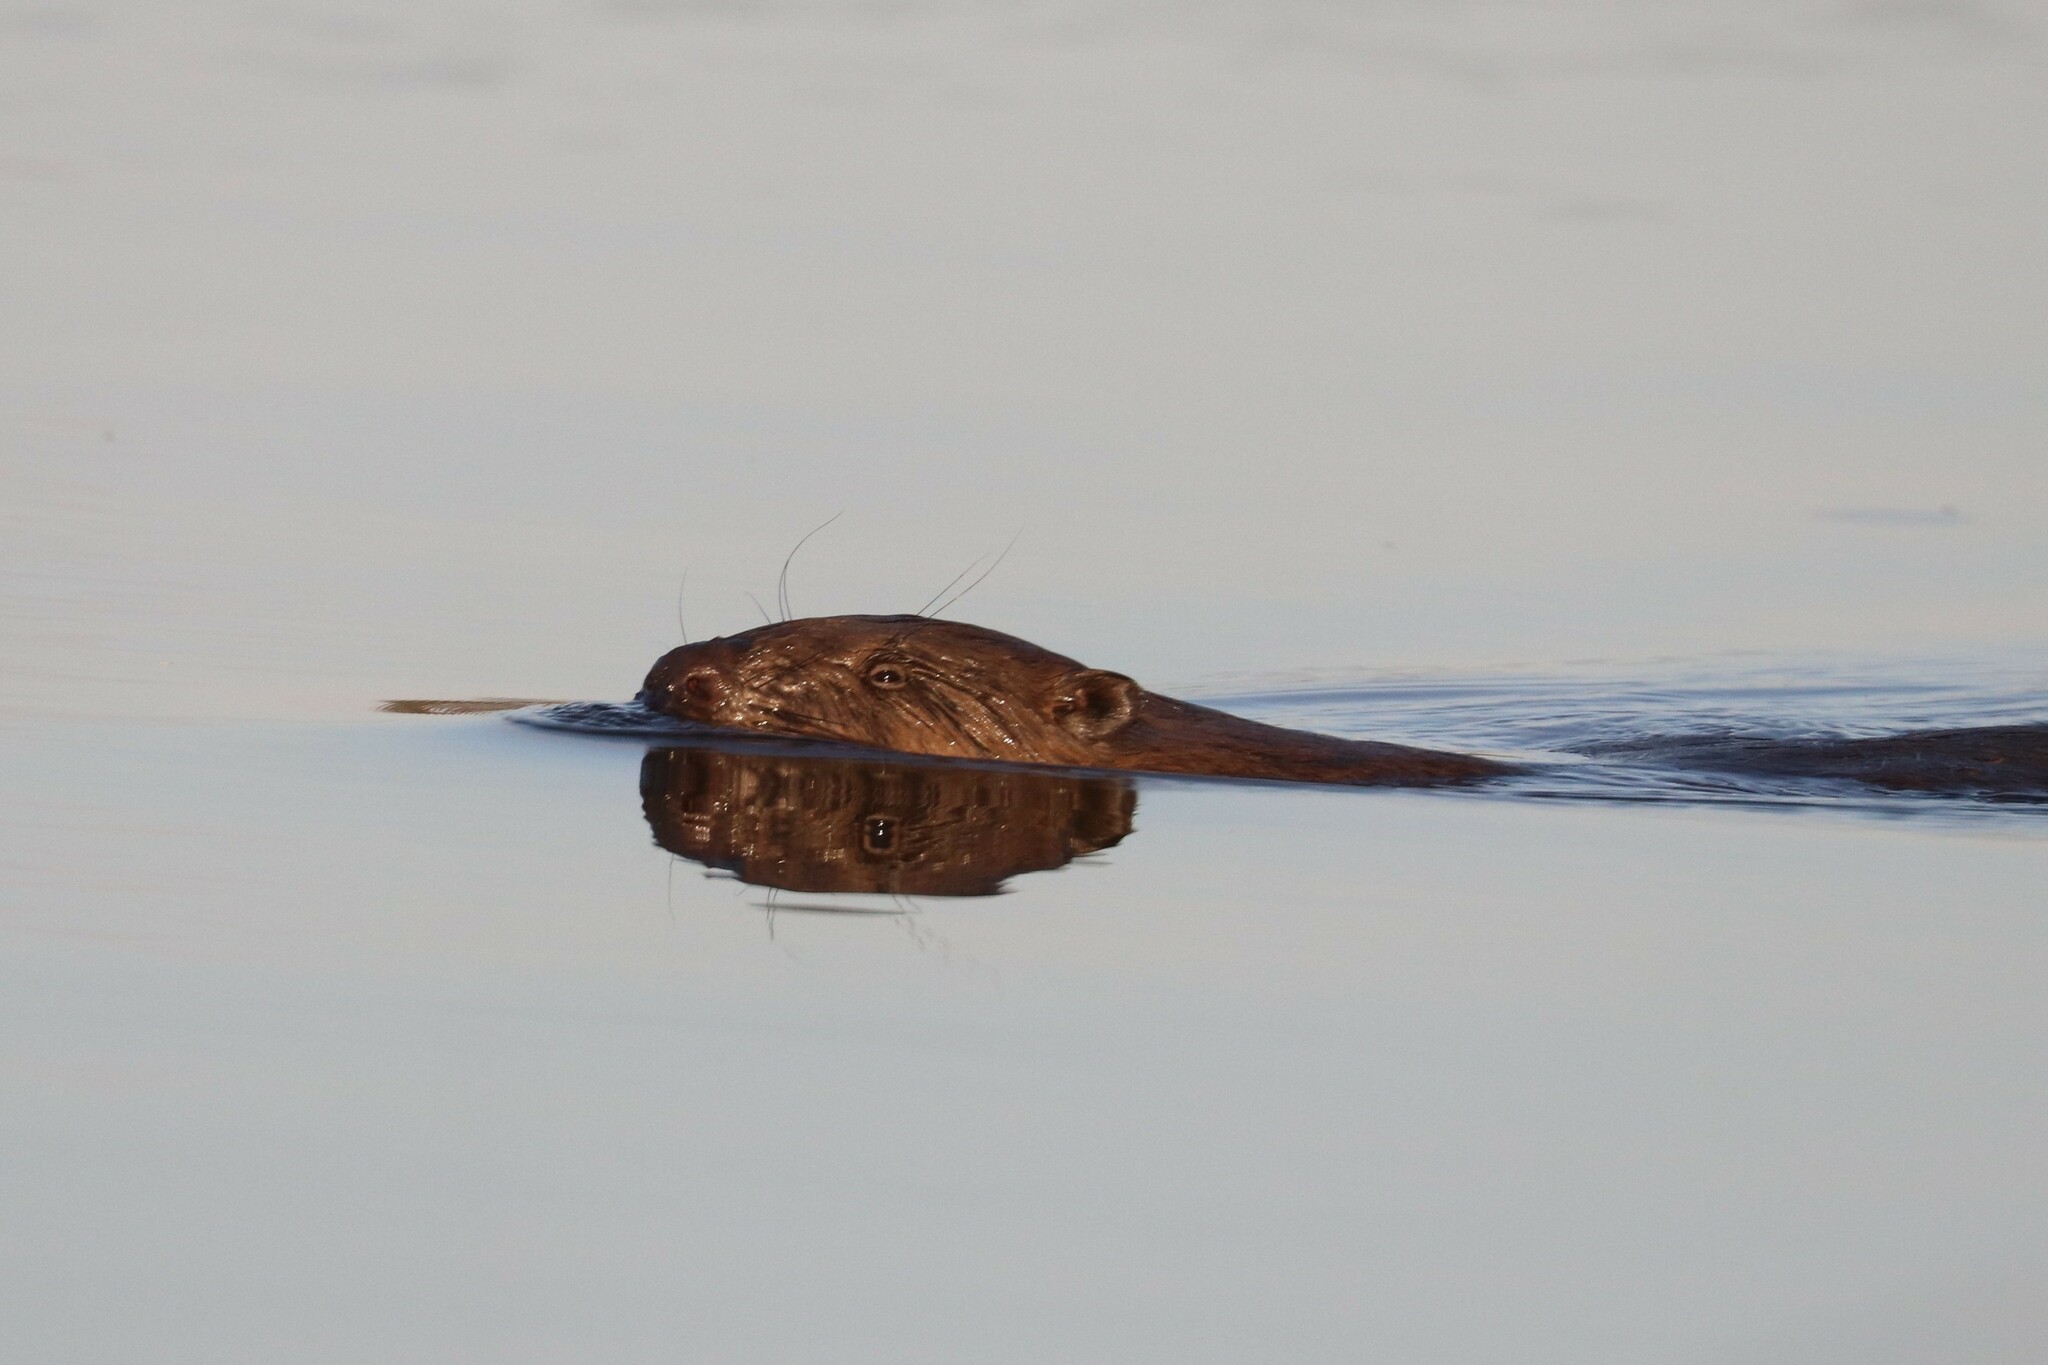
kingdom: Animalia
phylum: Chordata
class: Mammalia
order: Rodentia
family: Castoridae
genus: Castor
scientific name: Castor fiber
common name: Eurasian beaver
